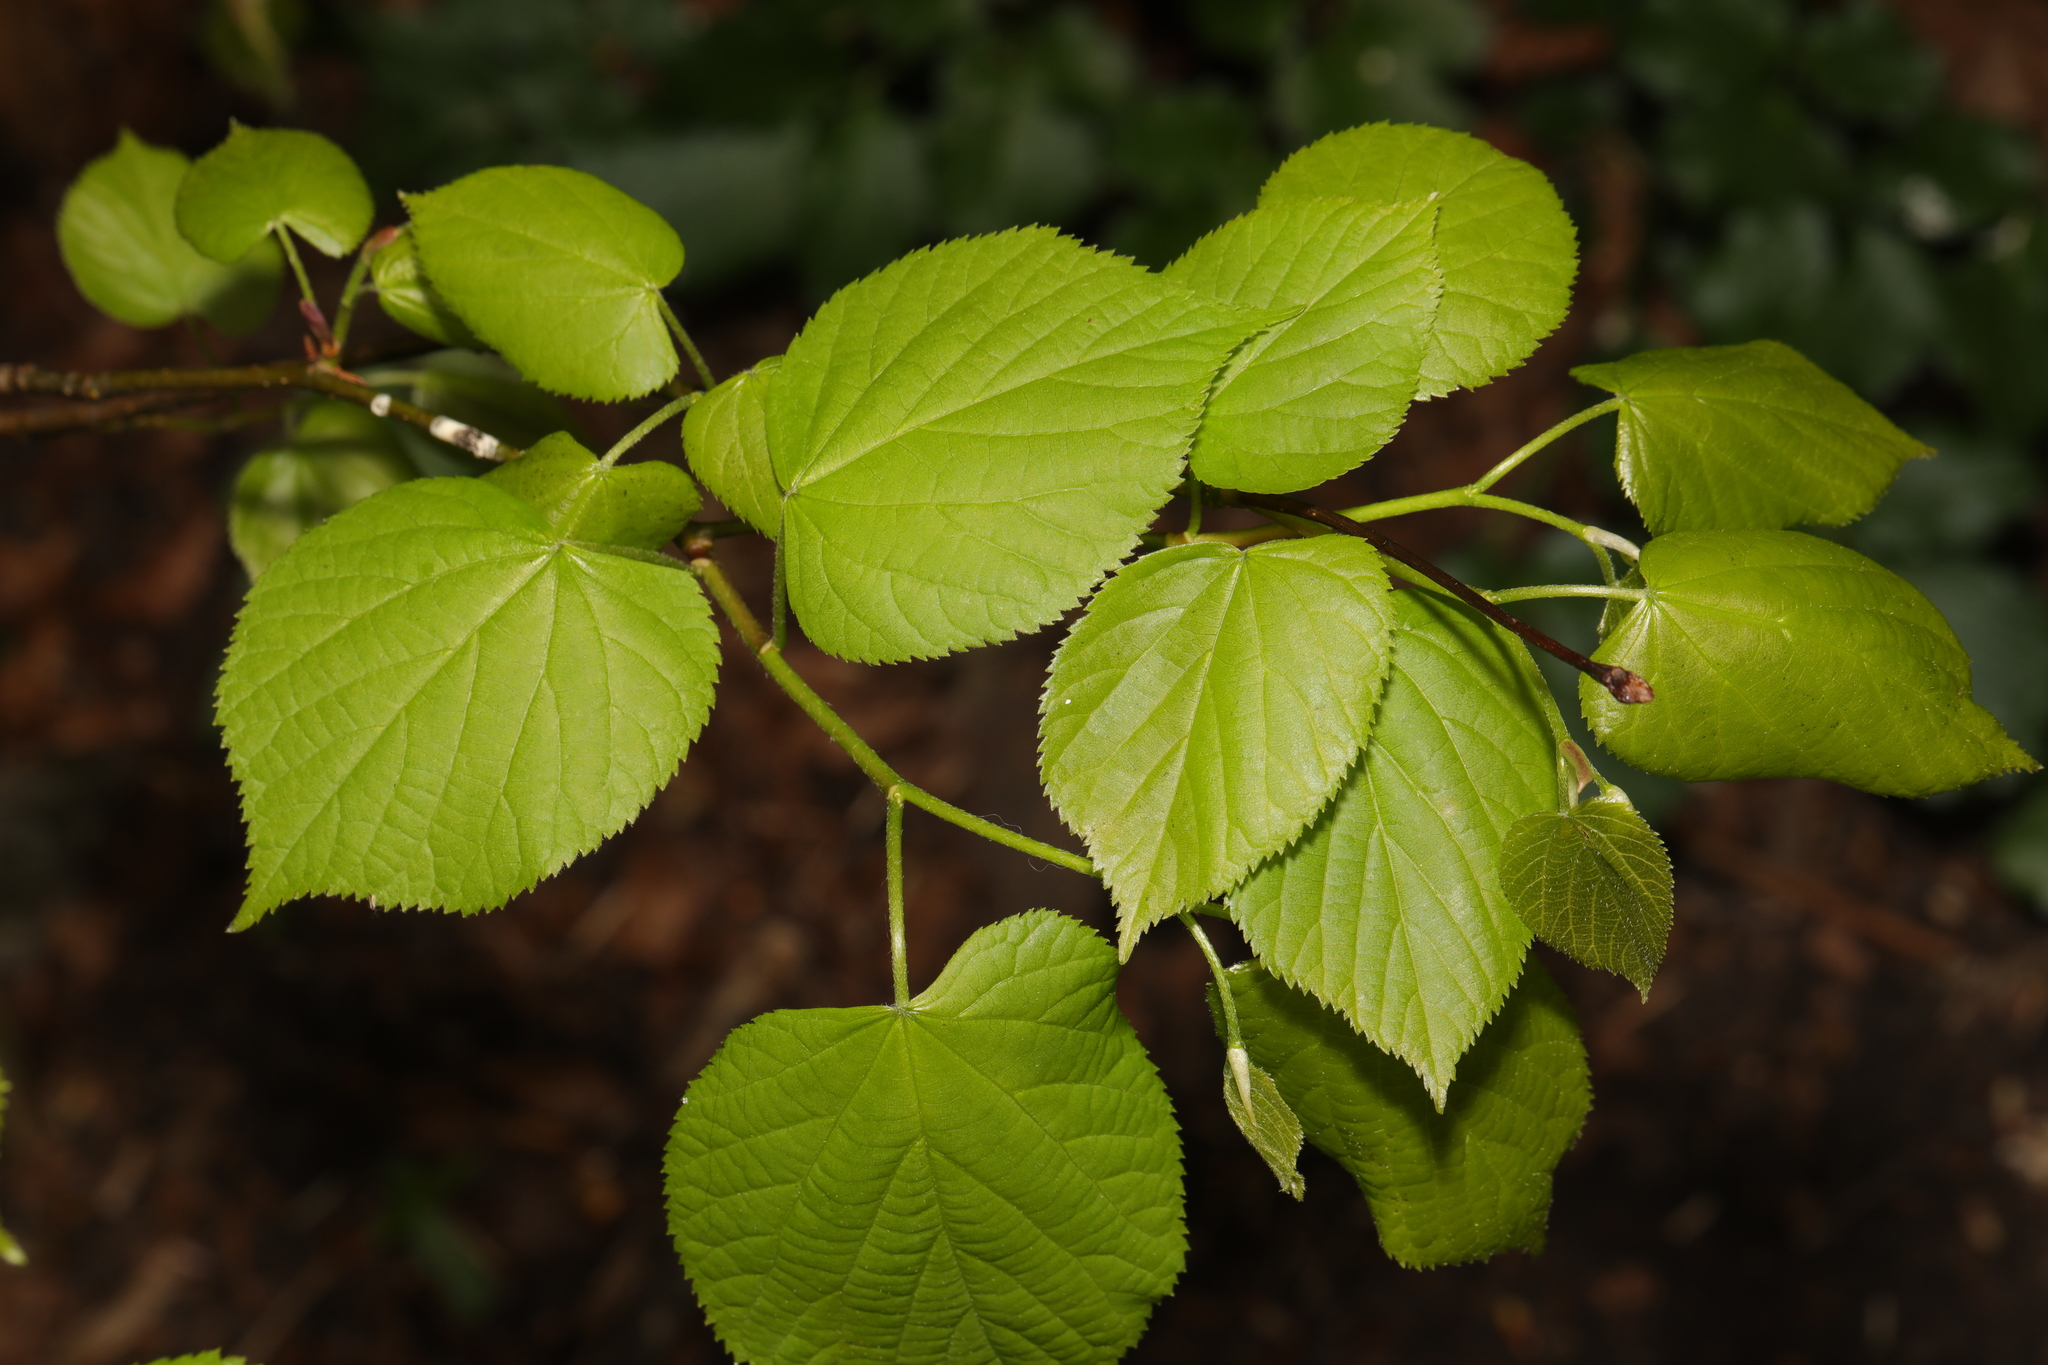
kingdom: Plantae
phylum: Tracheophyta
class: Magnoliopsida
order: Malvales
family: Malvaceae
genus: Tilia
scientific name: Tilia europaea
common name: European linden
